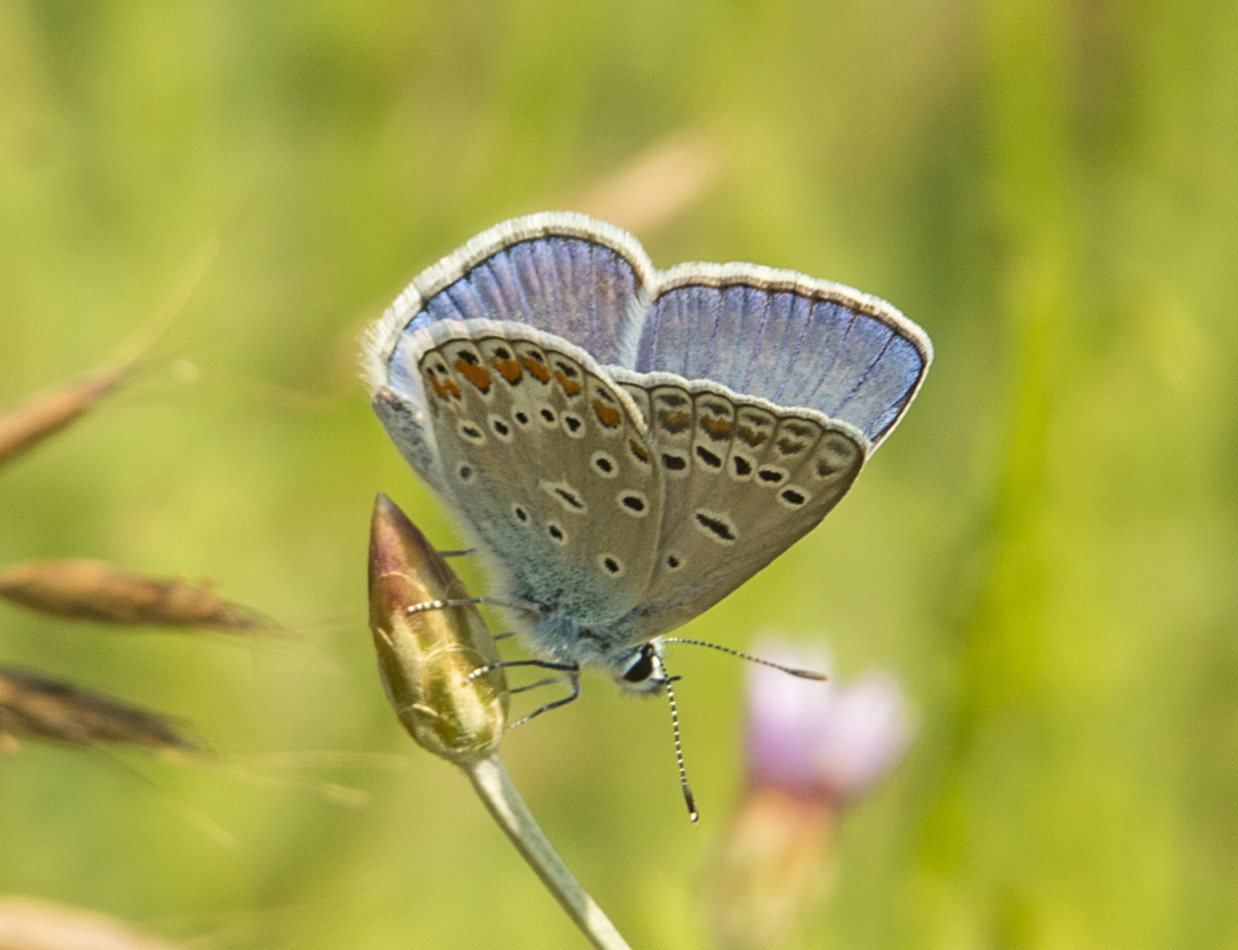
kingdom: Animalia
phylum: Arthropoda
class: Insecta
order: Lepidoptera
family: Lycaenidae
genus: Polyommatus
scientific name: Polyommatus icarus
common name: Common blue
